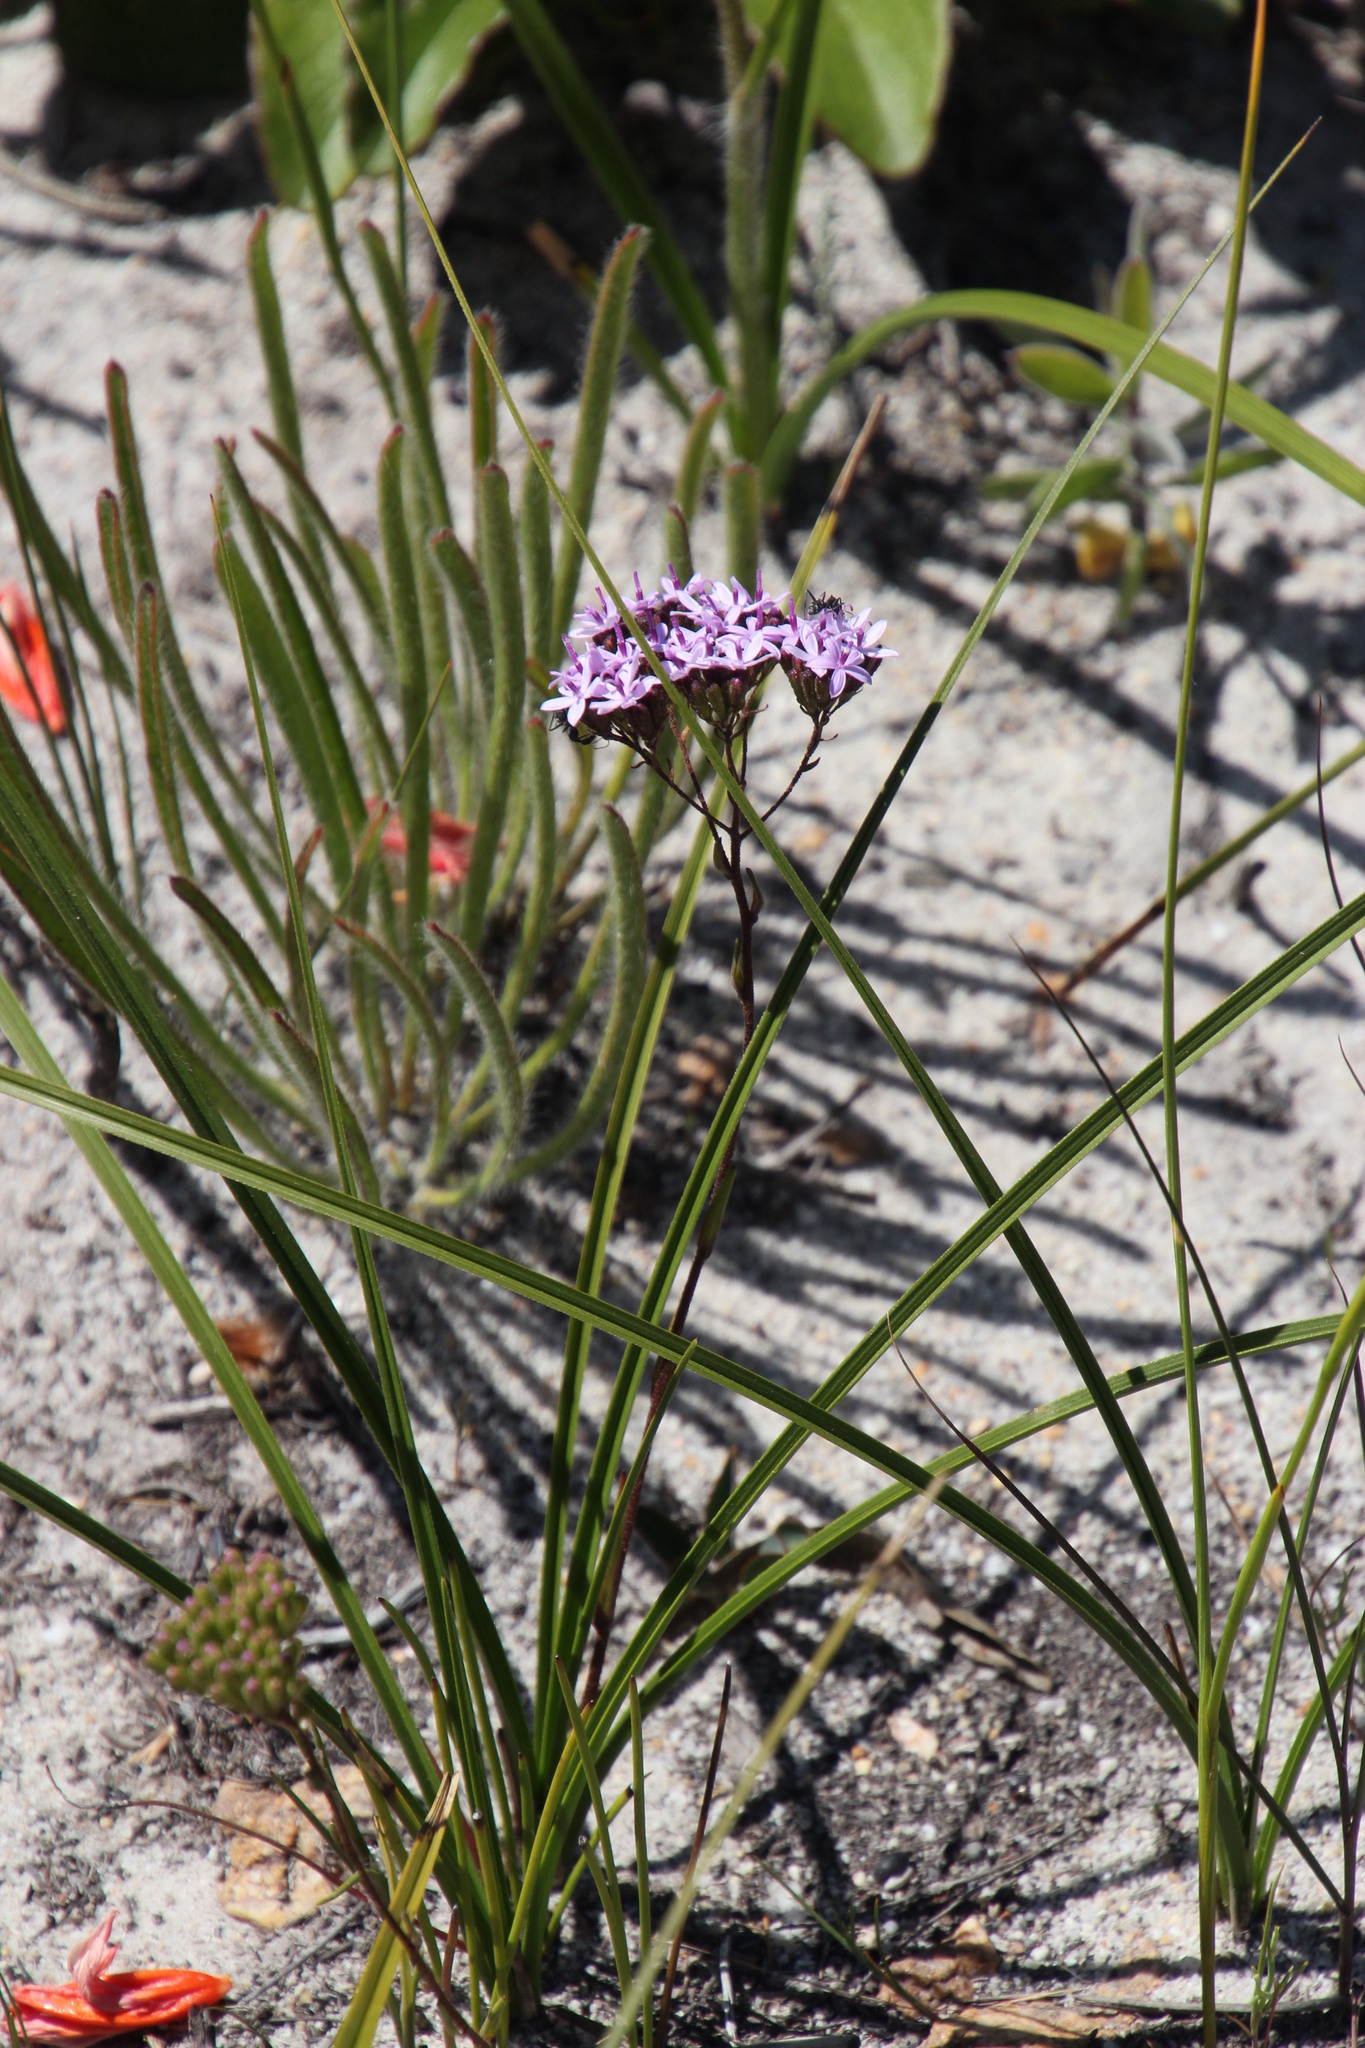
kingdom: Plantae
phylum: Tracheophyta
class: Magnoliopsida
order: Asterales
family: Asteraceae
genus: Corymbium
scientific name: Corymbium africanum
